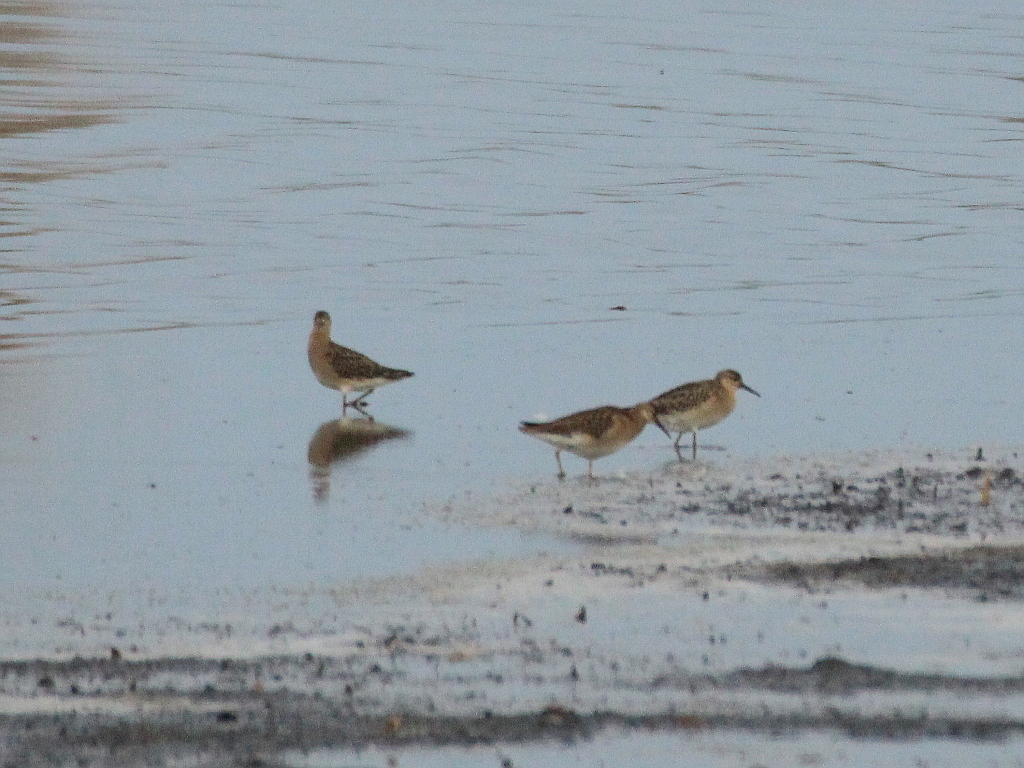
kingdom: Animalia
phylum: Chordata
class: Aves
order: Charadriiformes
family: Scolopacidae
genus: Calidris
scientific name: Calidris pugnax
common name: Ruff
